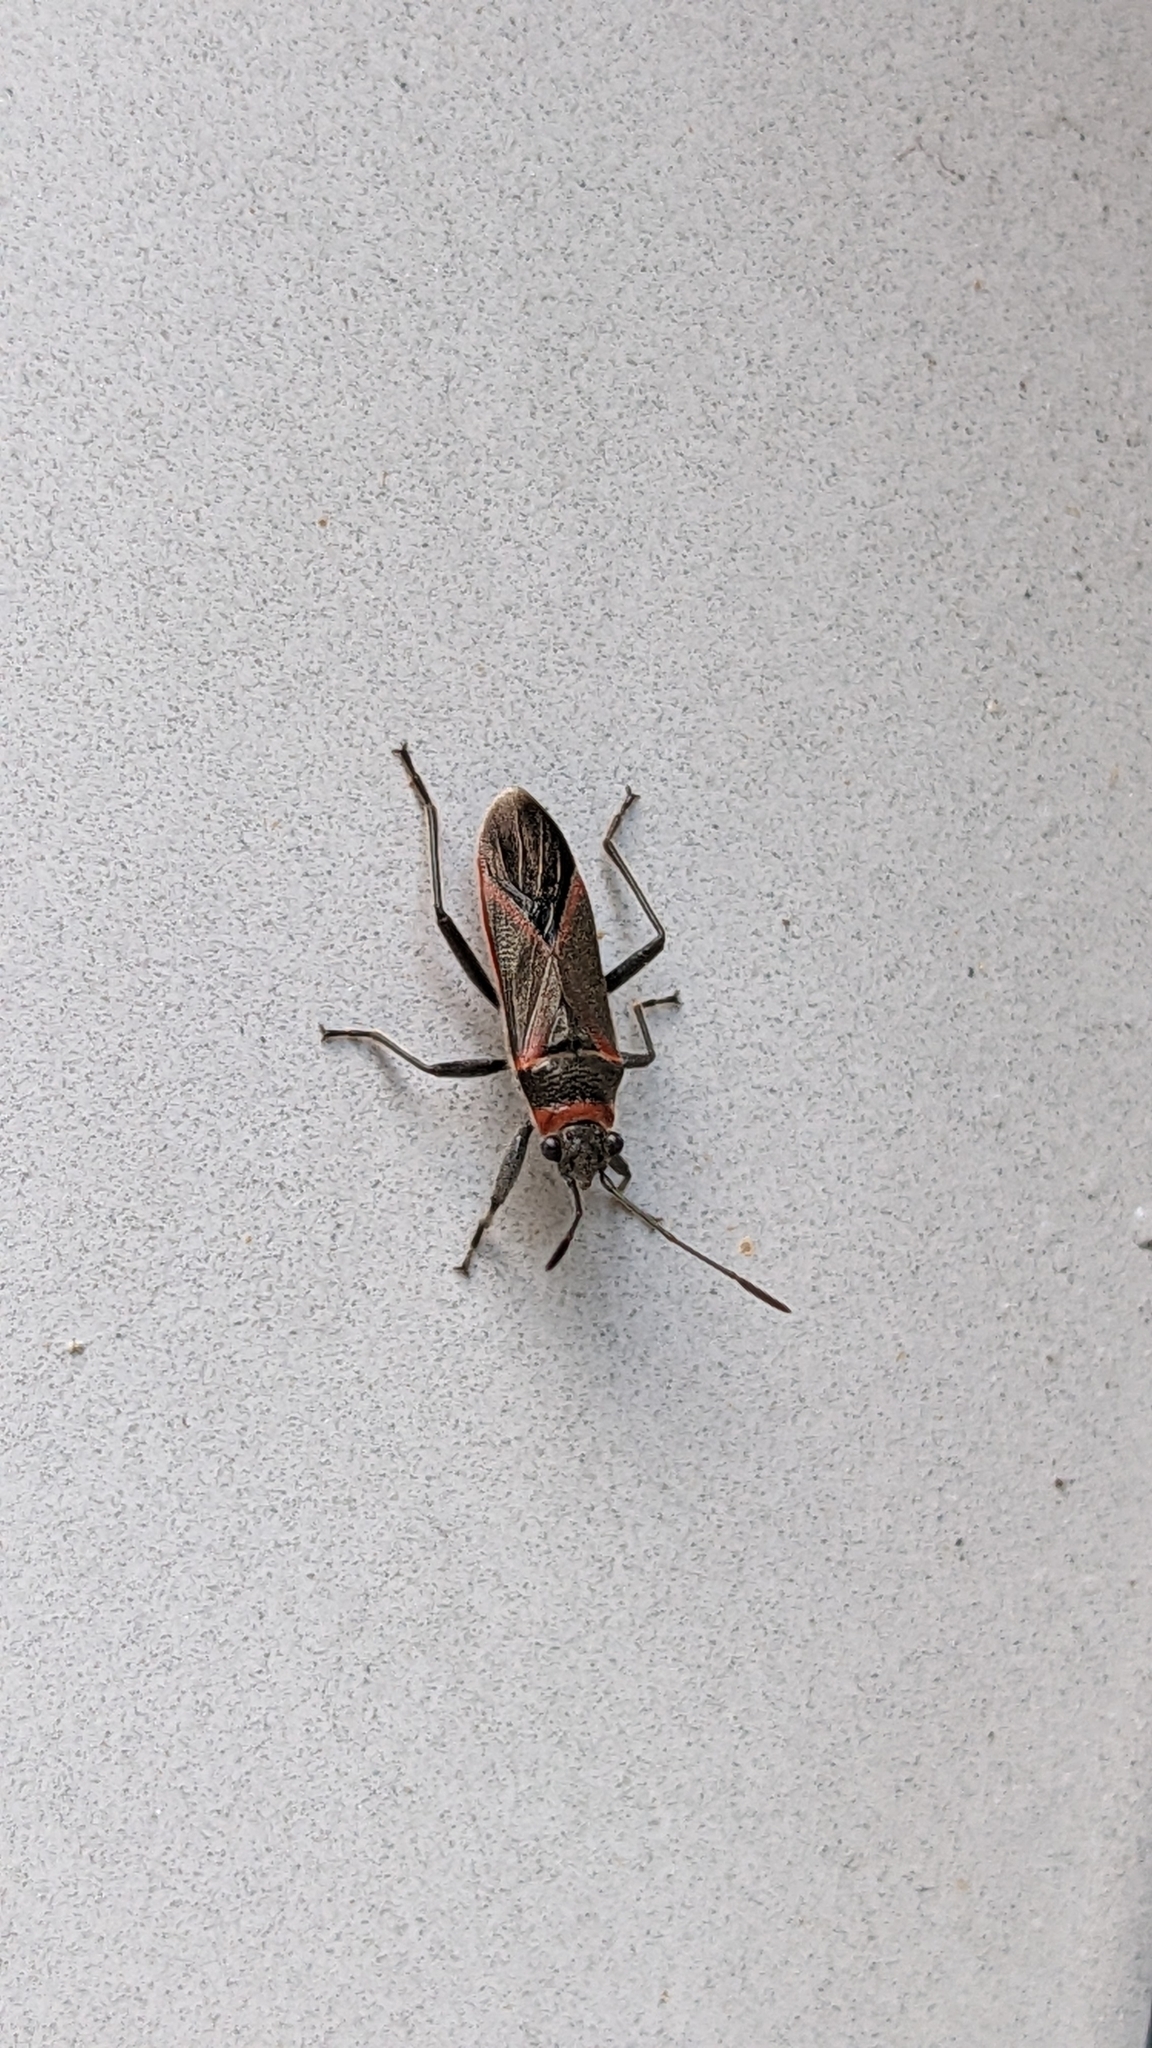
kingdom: Animalia
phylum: Arthropoda
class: Insecta
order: Hemiptera
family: Lygaeidae
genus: Arocatus
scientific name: Arocatus rusticus
